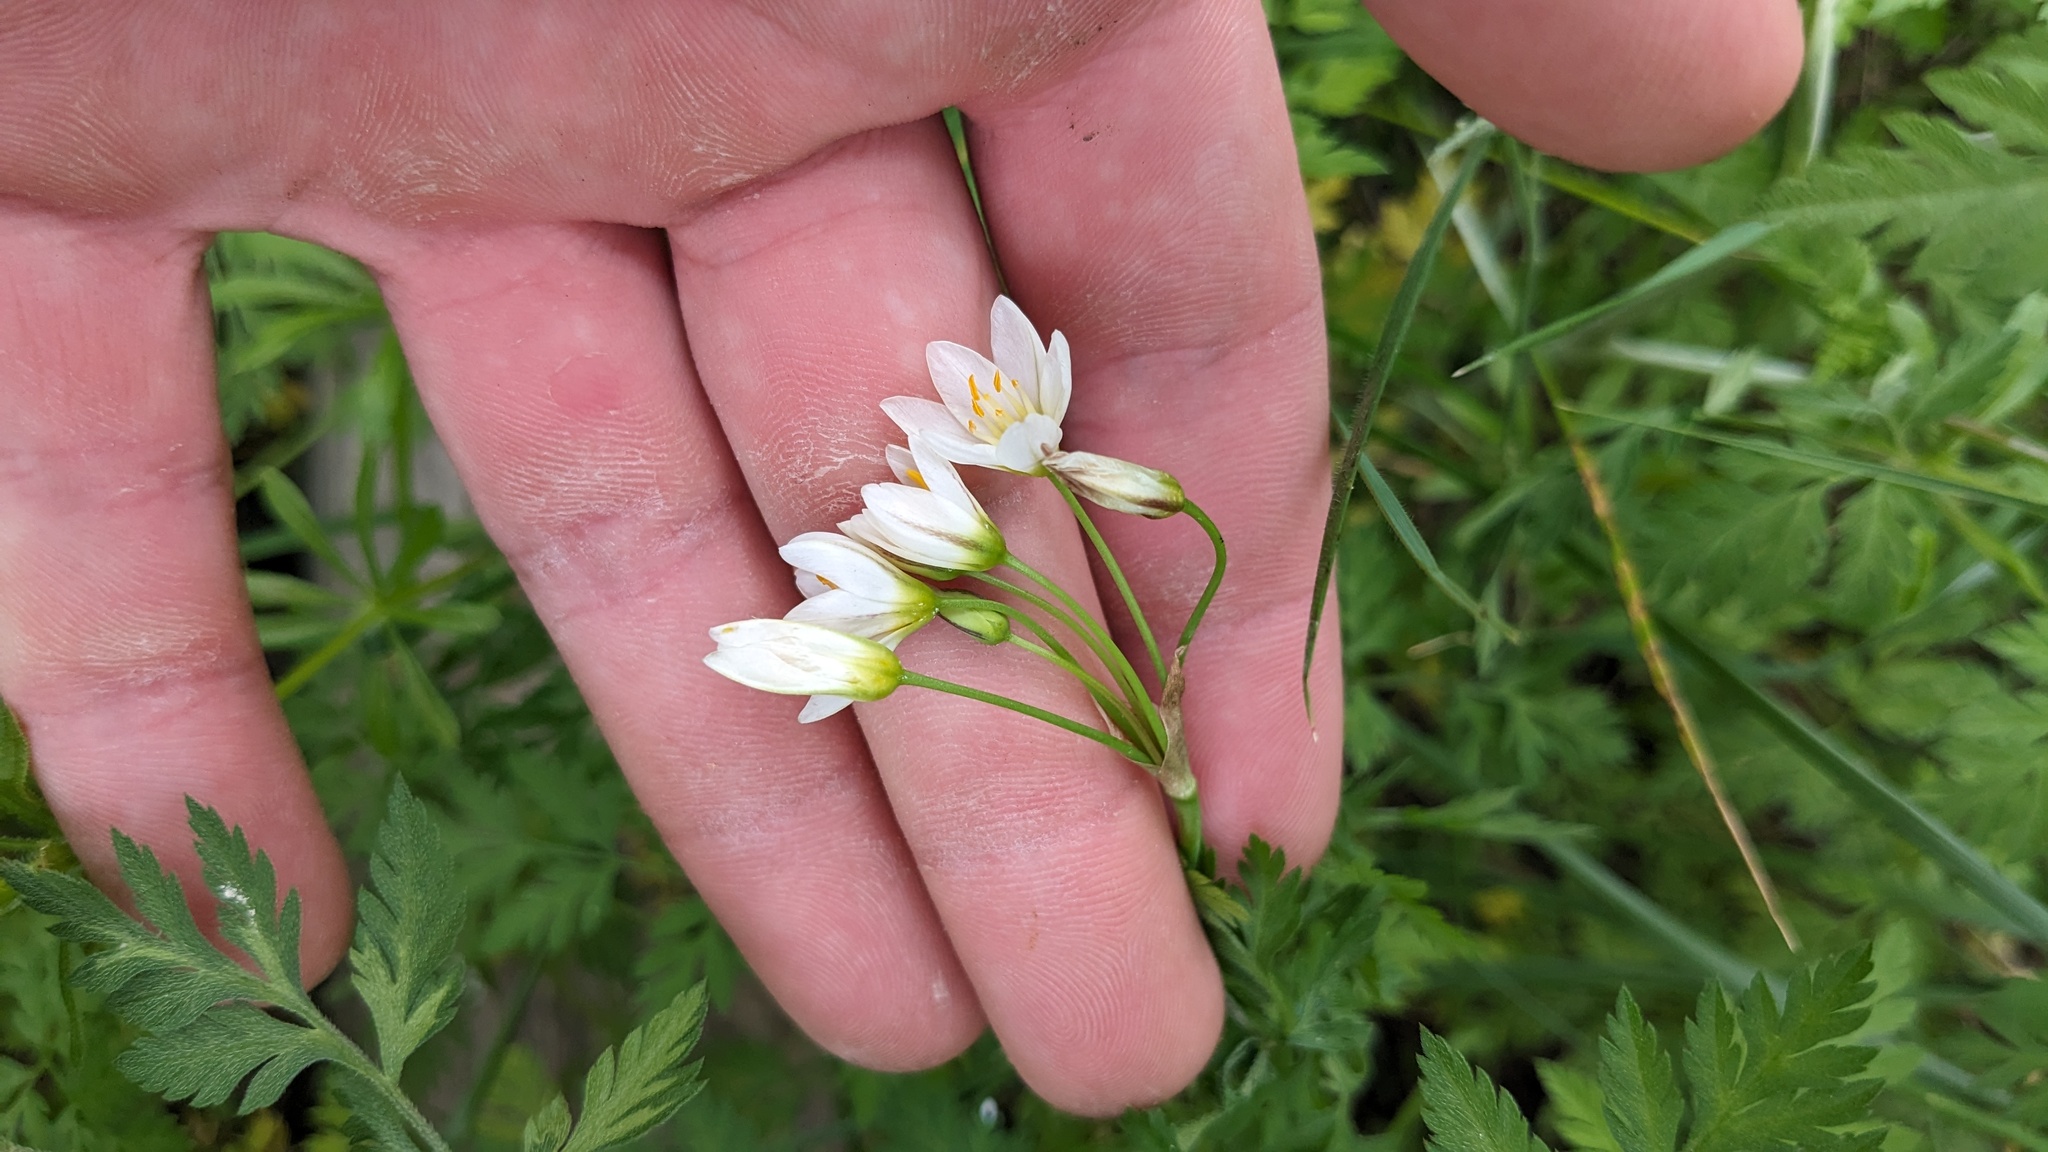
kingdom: Plantae
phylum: Tracheophyta
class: Liliopsida
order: Asparagales
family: Amaryllidaceae
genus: Nothoscordum
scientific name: Nothoscordum bivalve
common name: Crow-poison
